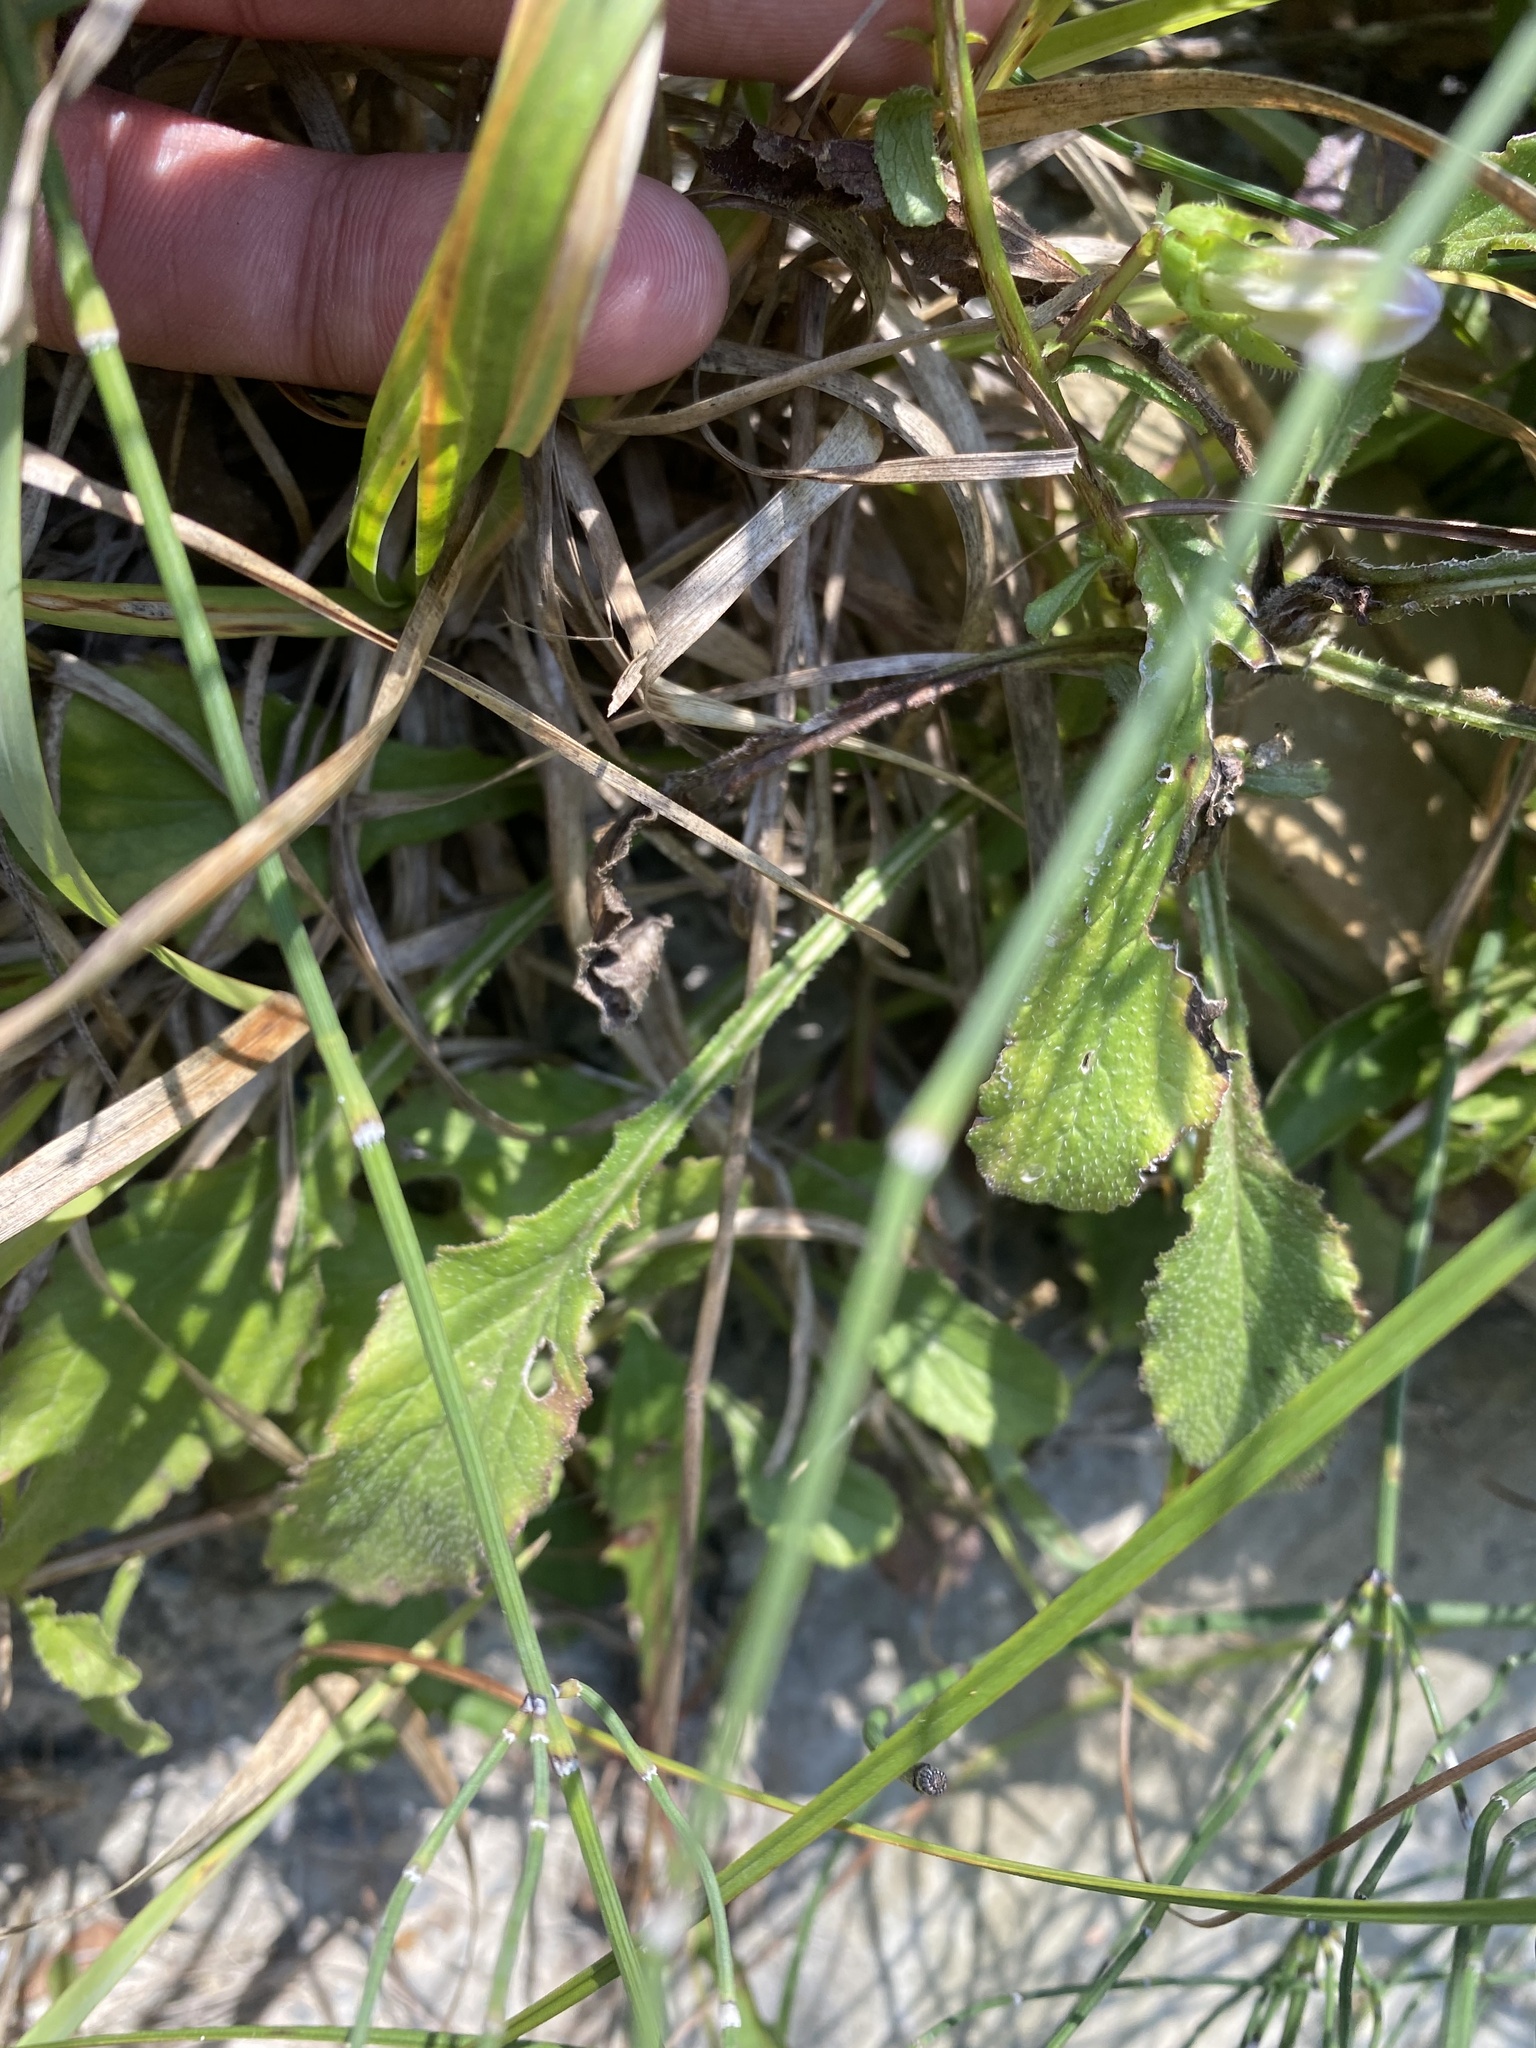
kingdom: Plantae
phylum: Tracheophyta
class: Magnoliopsida
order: Asterales
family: Campanulaceae
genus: Campanula
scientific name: Campanula komarovii
